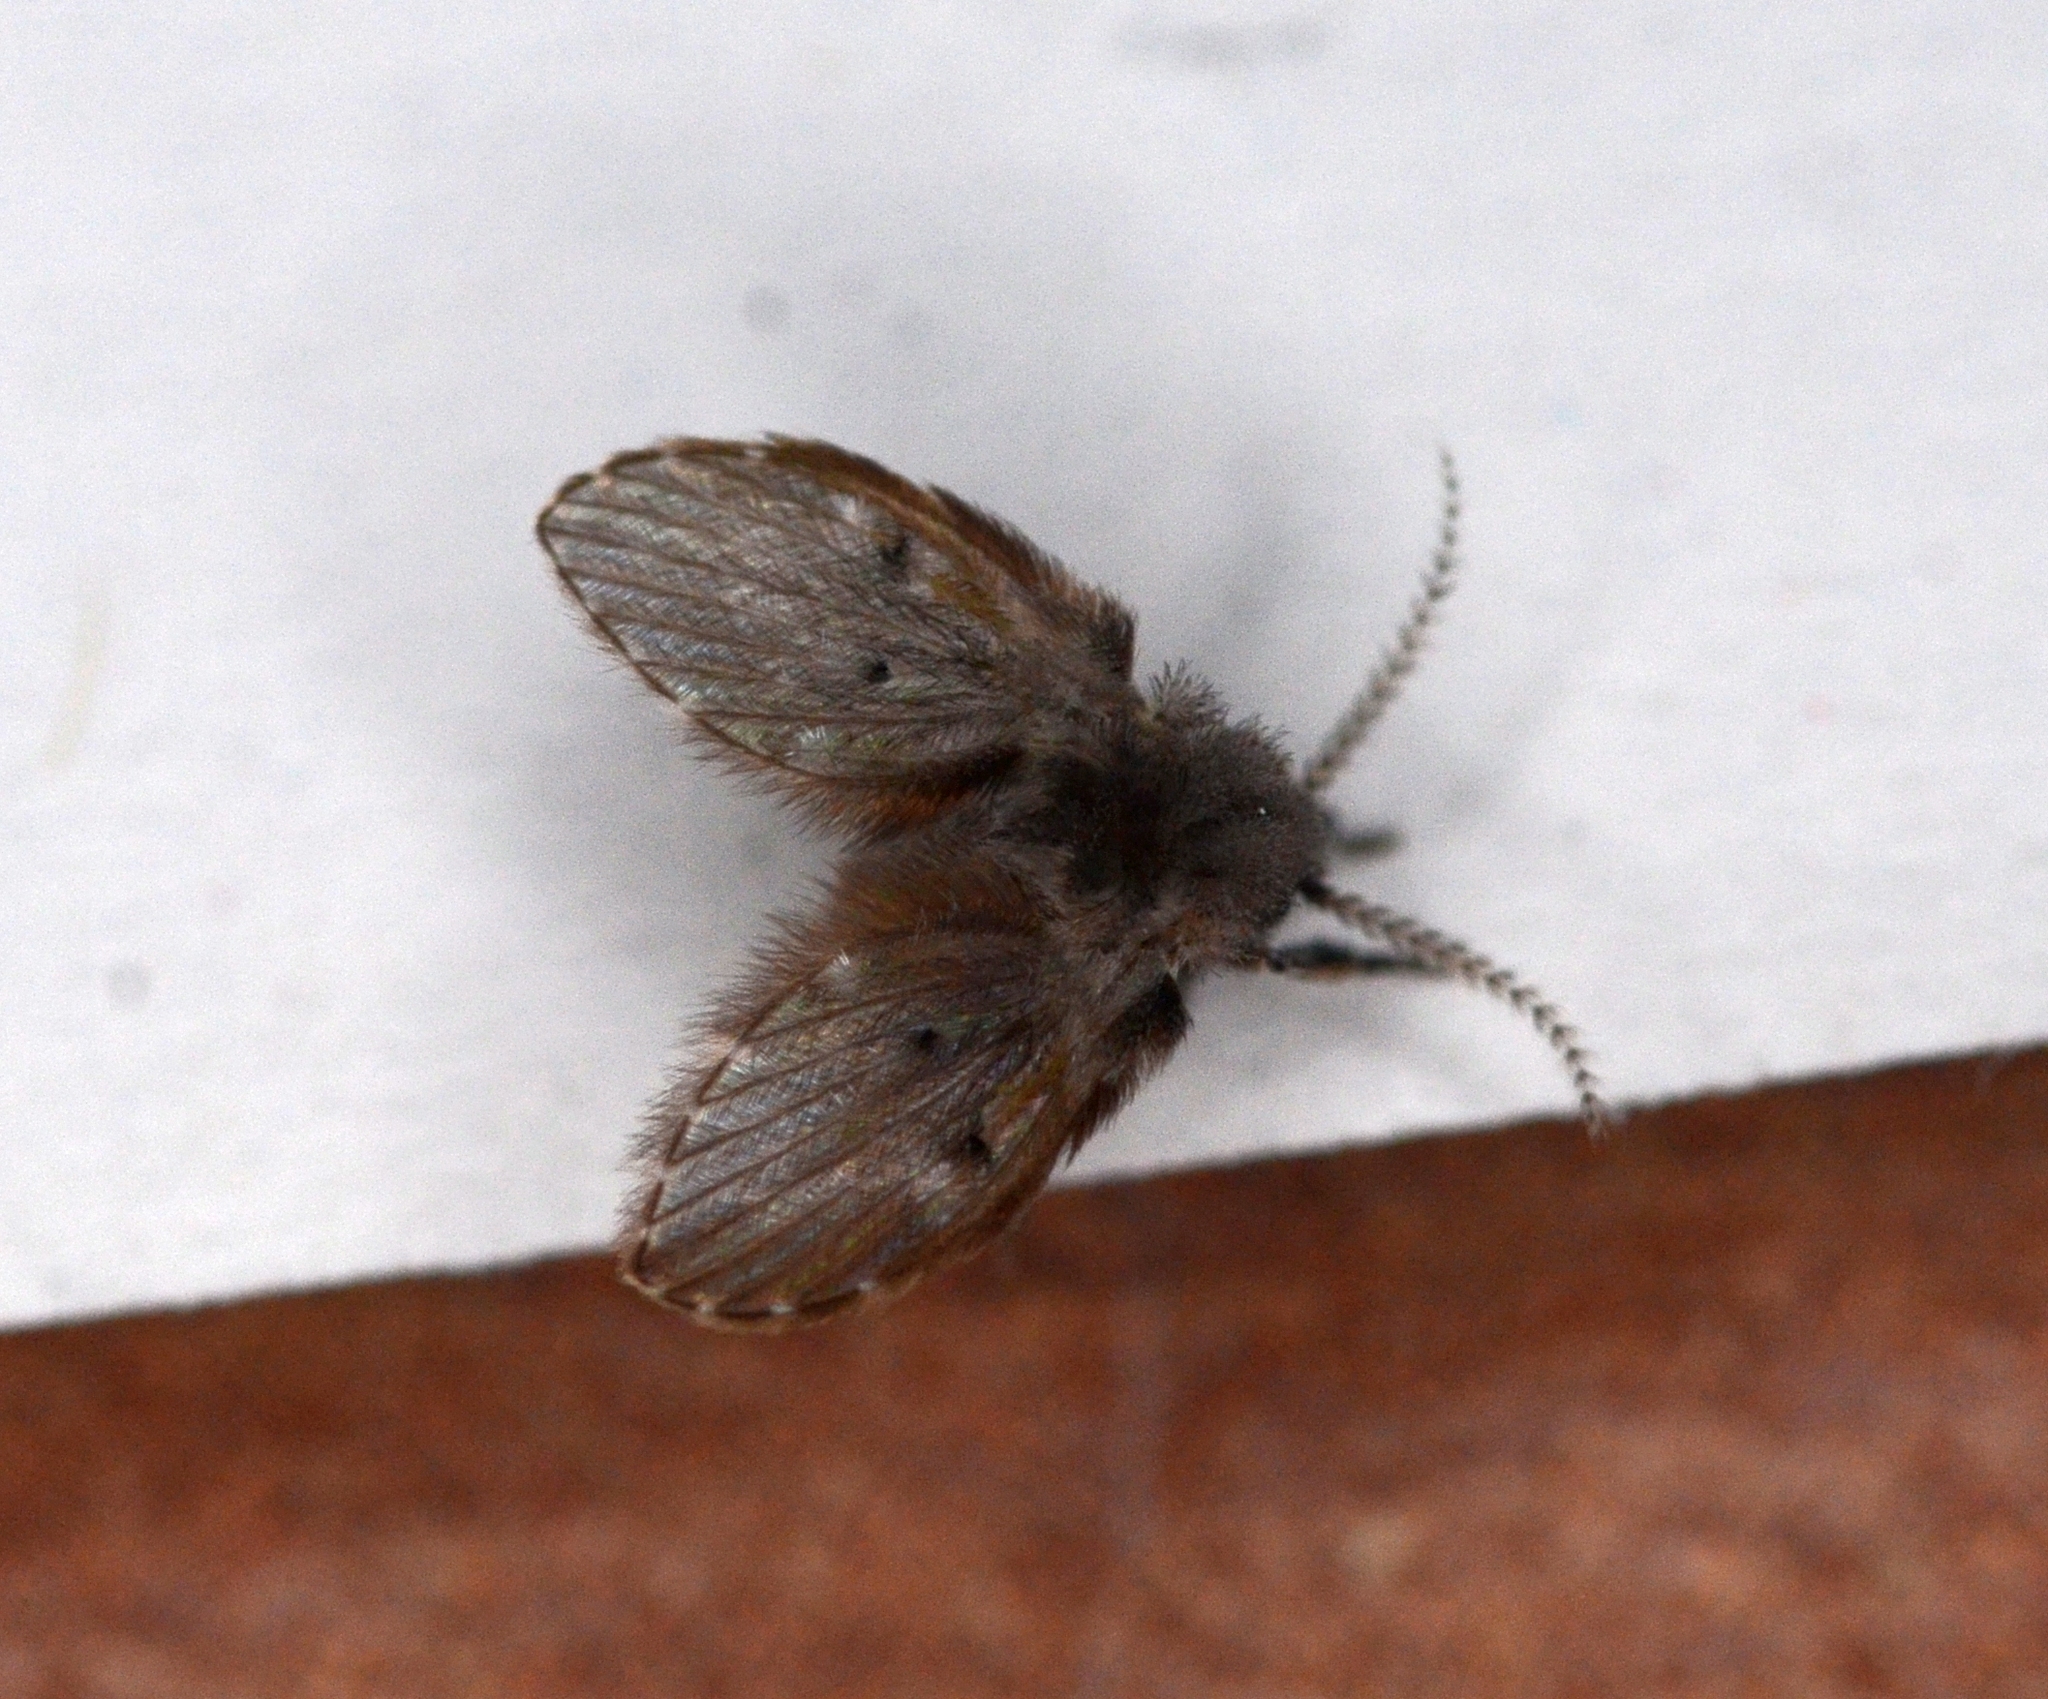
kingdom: Animalia
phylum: Arthropoda
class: Insecta
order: Diptera
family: Psychodidae
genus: Clogmia
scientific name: Clogmia albipunctatus
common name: White-spotted moth fly
